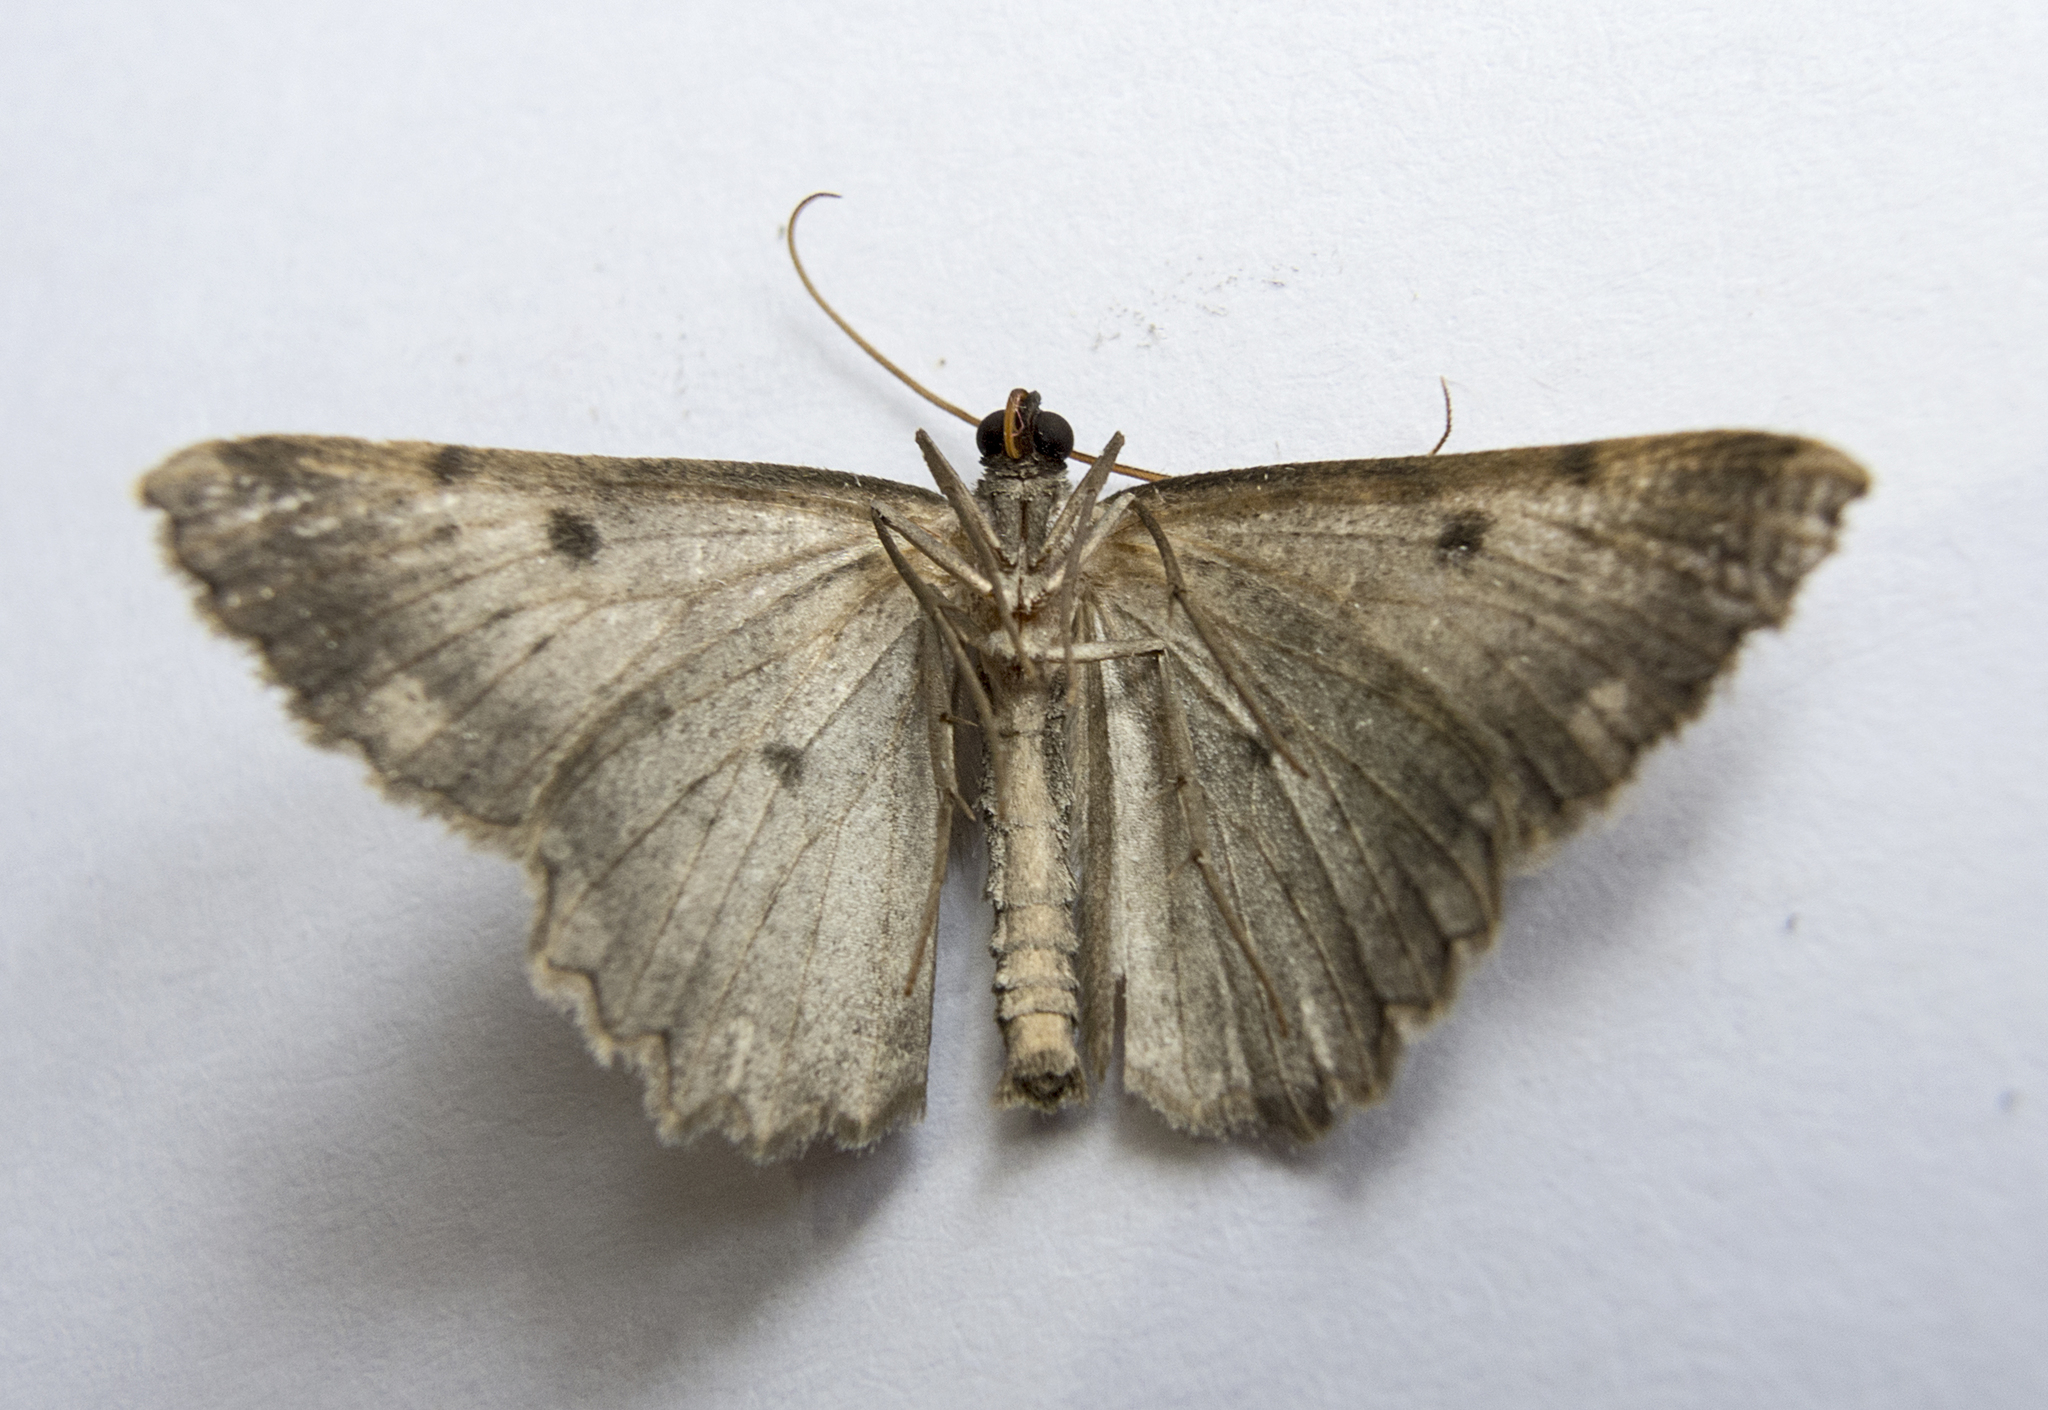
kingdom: Animalia
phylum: Arthropoda
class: Insecta
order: Lepidoptera
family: Geometridae
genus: Gnophos
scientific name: Gnophos sartata
